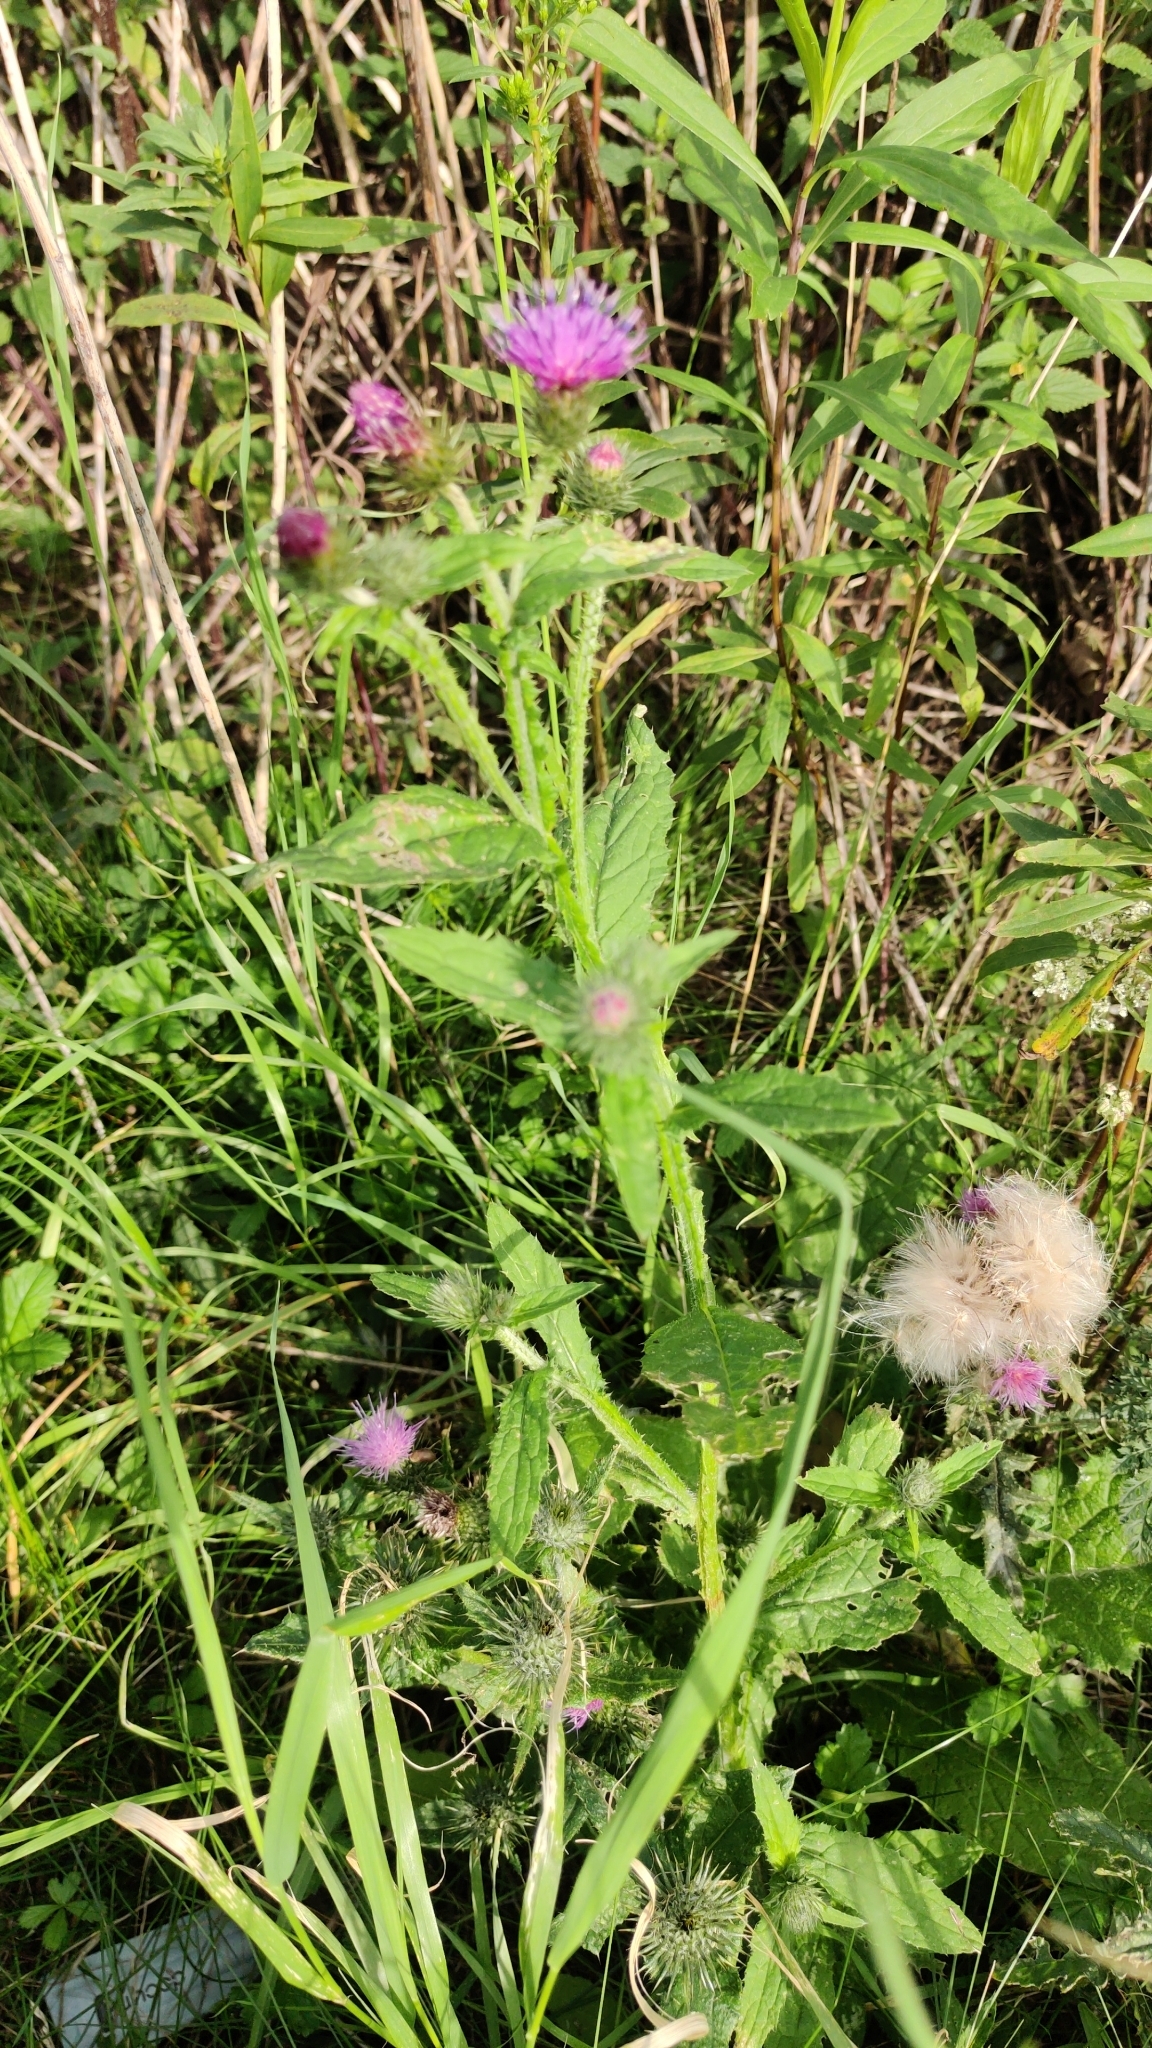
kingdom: Plantae
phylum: Tracheophyta
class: Magnoliopsida
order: Asterales
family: Asteraceae
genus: Carduus
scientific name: Carduus crispus
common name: Welted thistle
